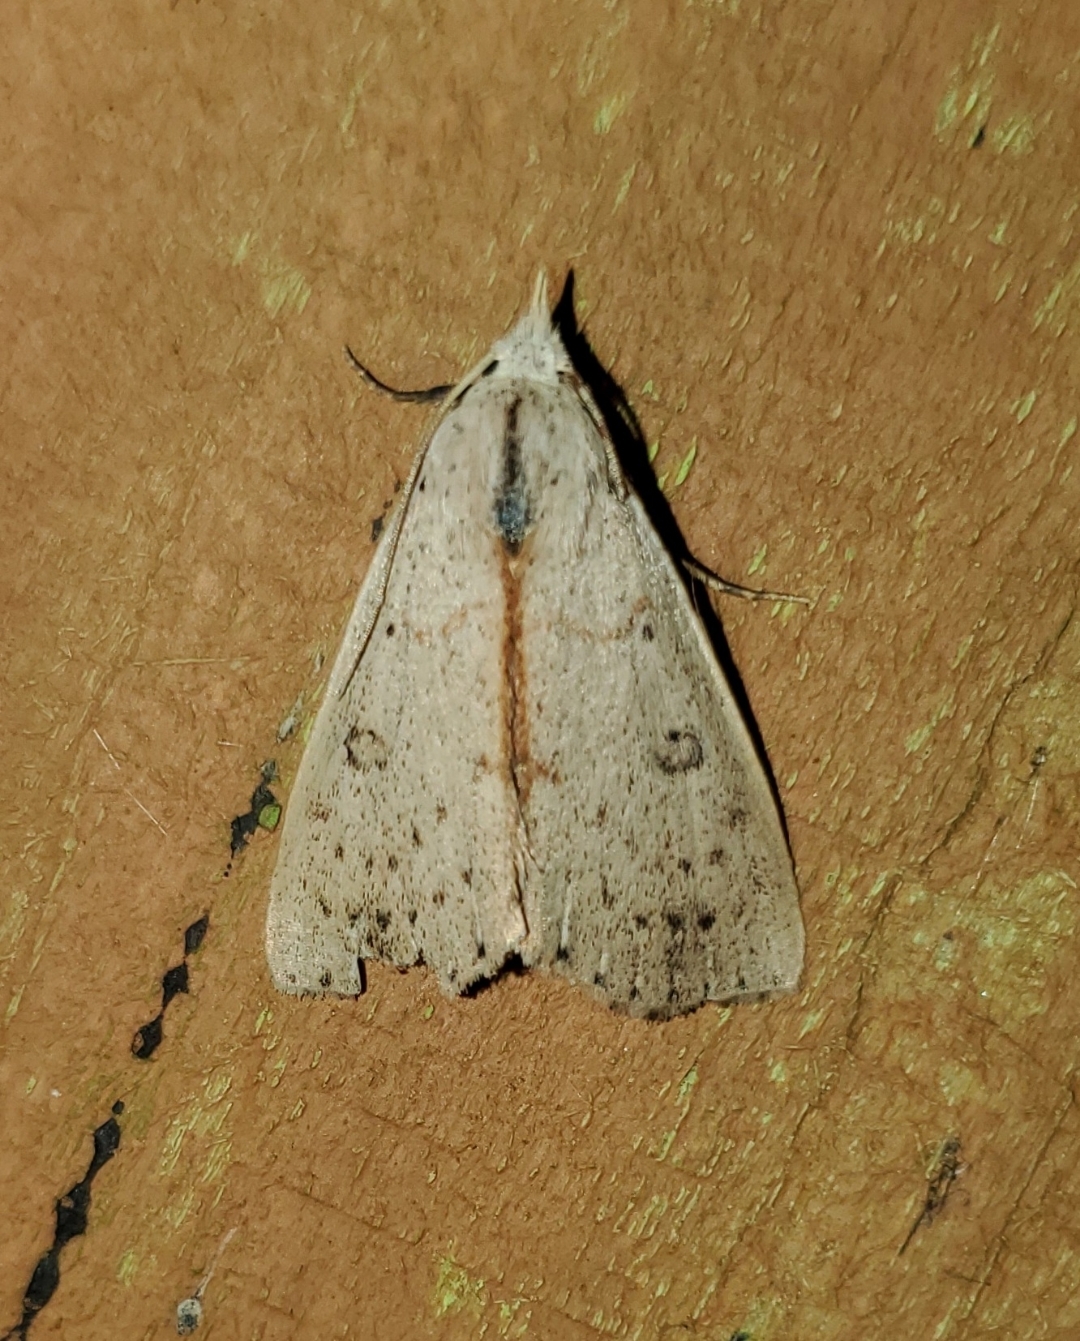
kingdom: Animalia
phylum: Arthropoda
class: Insecta
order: Lepidoptera
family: Erebidae
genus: Scolecocampa
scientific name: Scolecocampa liburna
